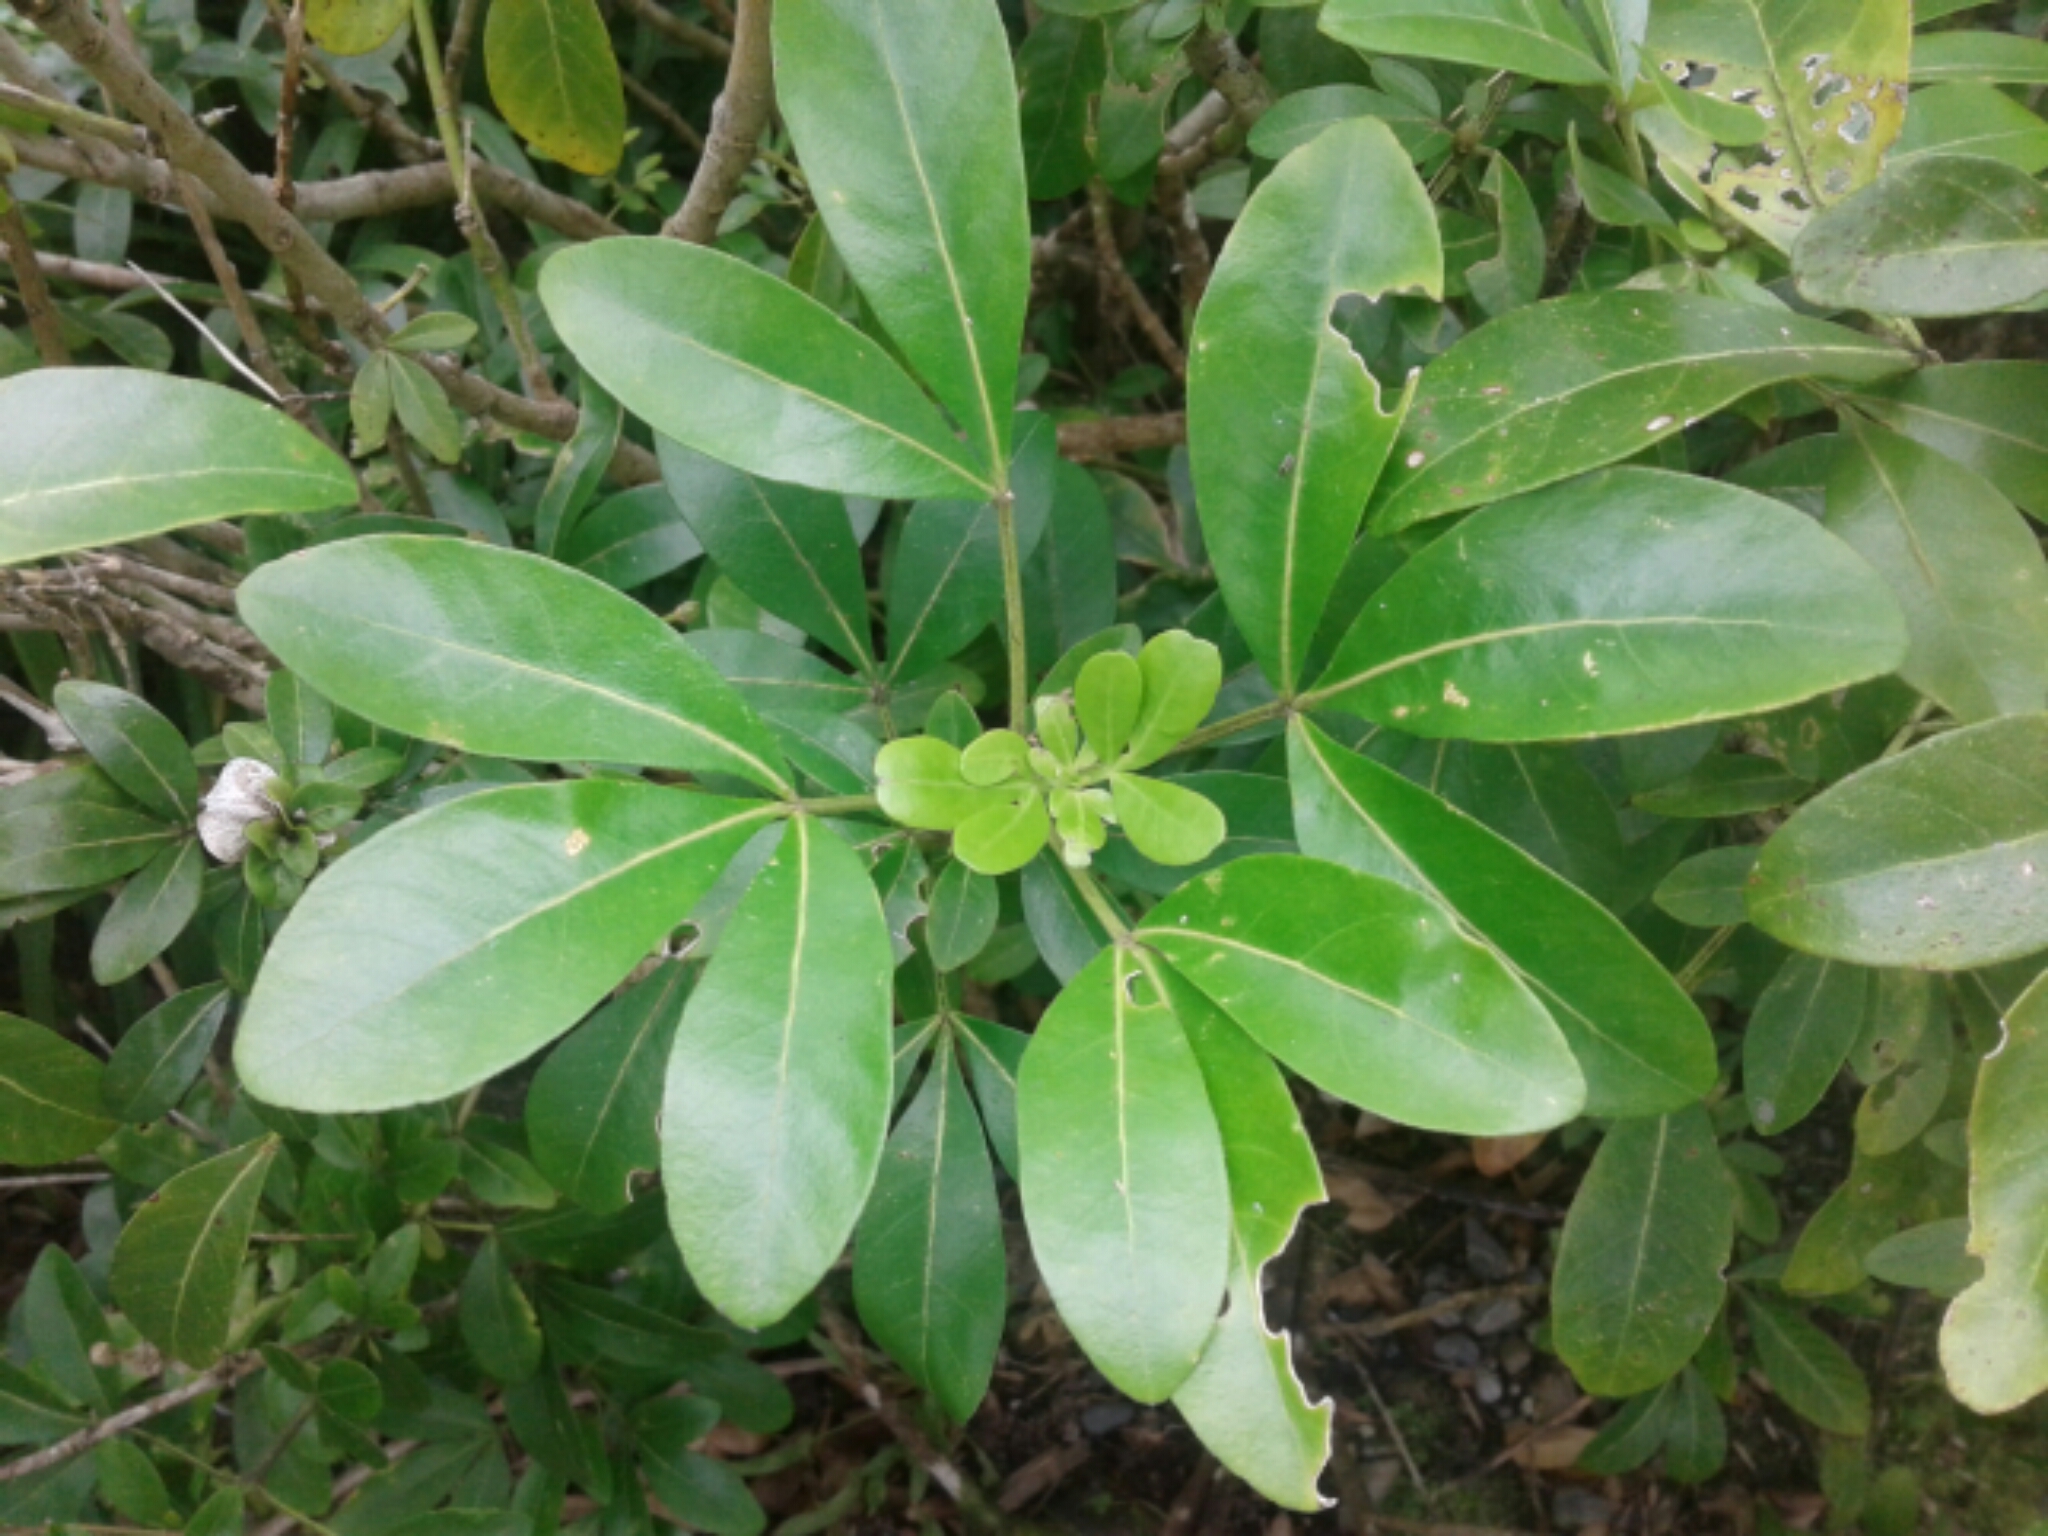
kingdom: Plantae
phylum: Tracheophyta
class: Magnoliopsida
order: Sapindales
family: Rutaceae
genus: Choisya
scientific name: Choisya ternata
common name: Mexican orange
